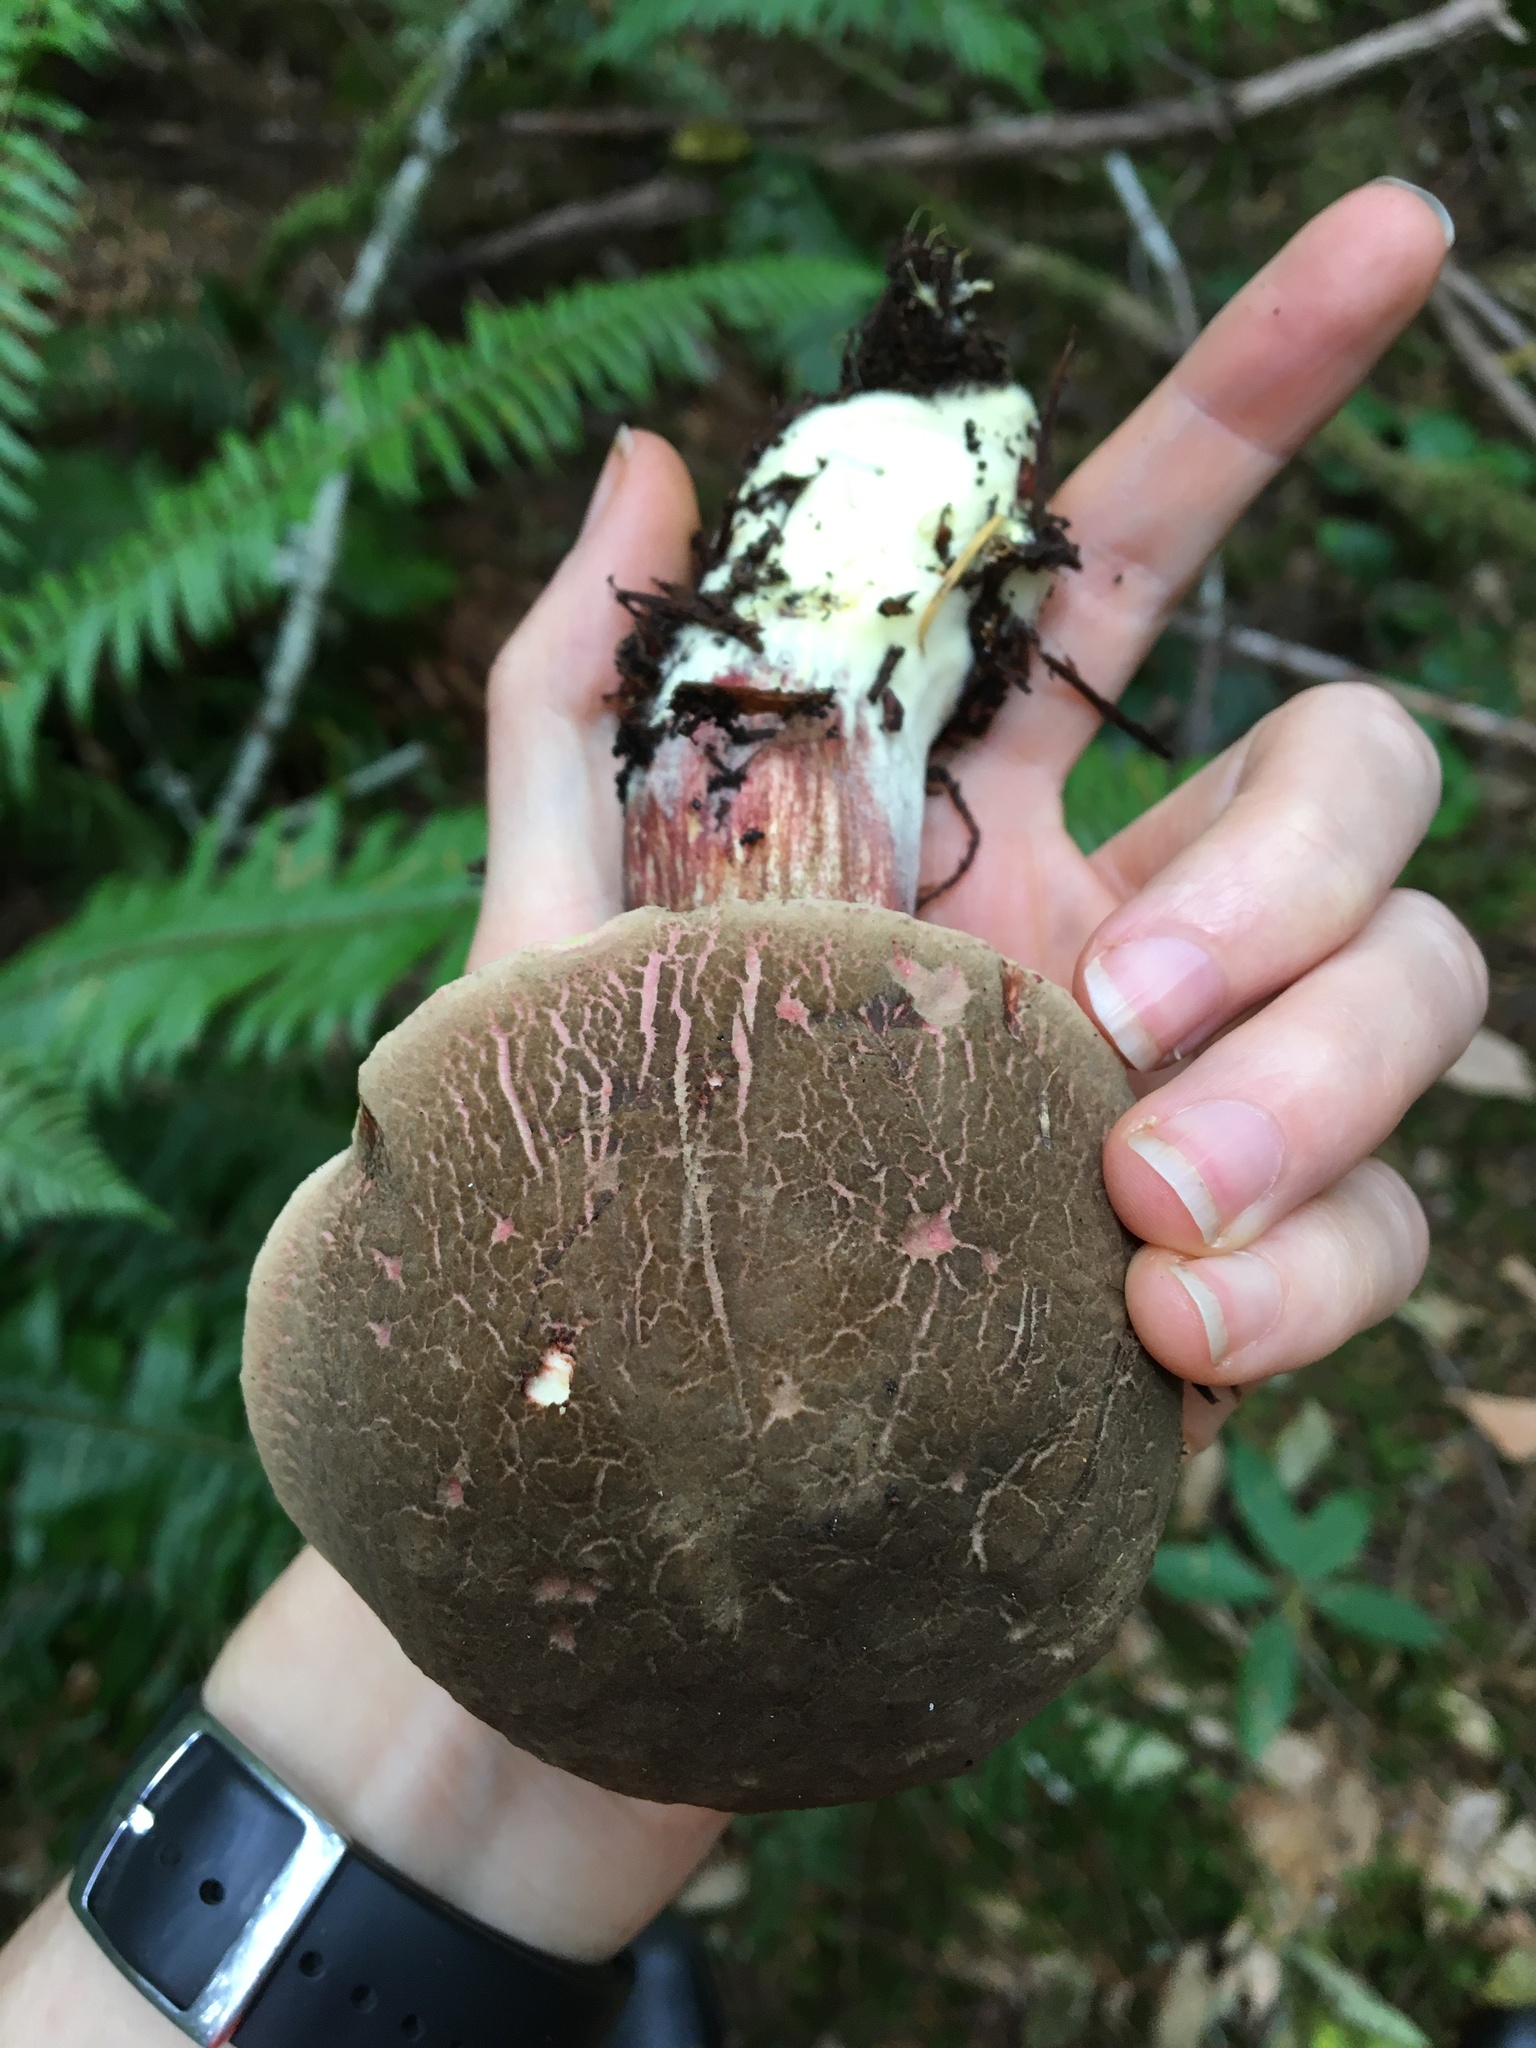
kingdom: Fungi
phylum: Basidiomycota
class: Agaricomycetes
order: Boletales
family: Boletaceae
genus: Xerocomellus
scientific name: Xerocomellus mendocinensis
